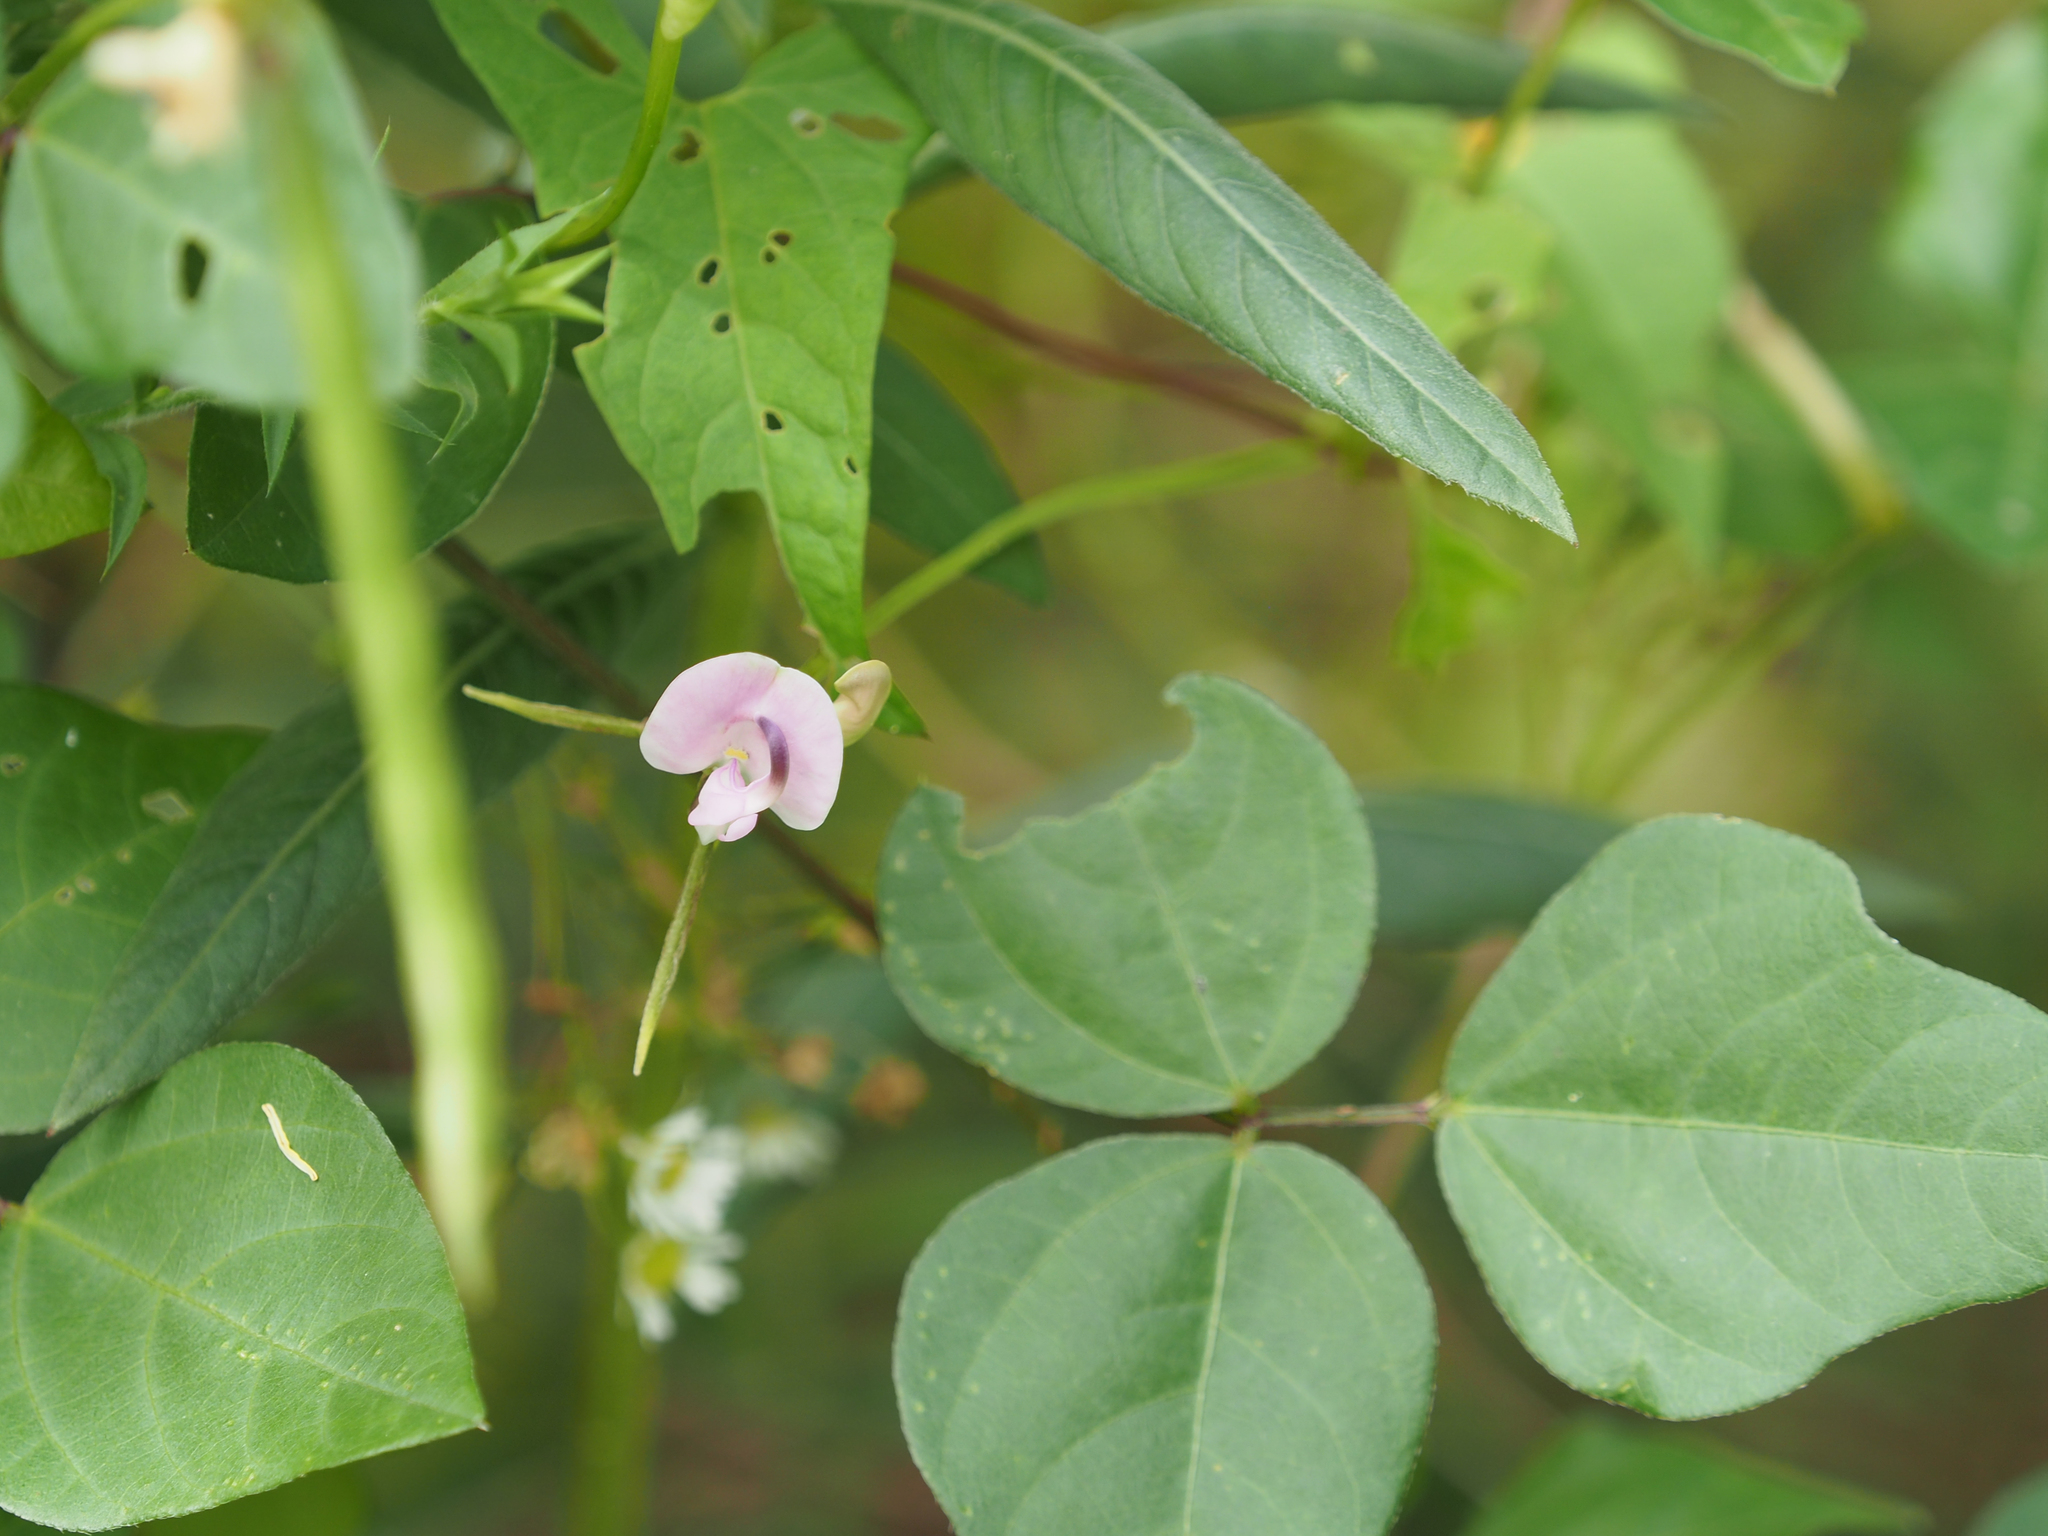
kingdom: Plantae
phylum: Tracheophyta
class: Magnoliopsida
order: Fabales
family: Fabaceae
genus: Strophostyles
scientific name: Strophostyles helvola
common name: Trailing wild bean
